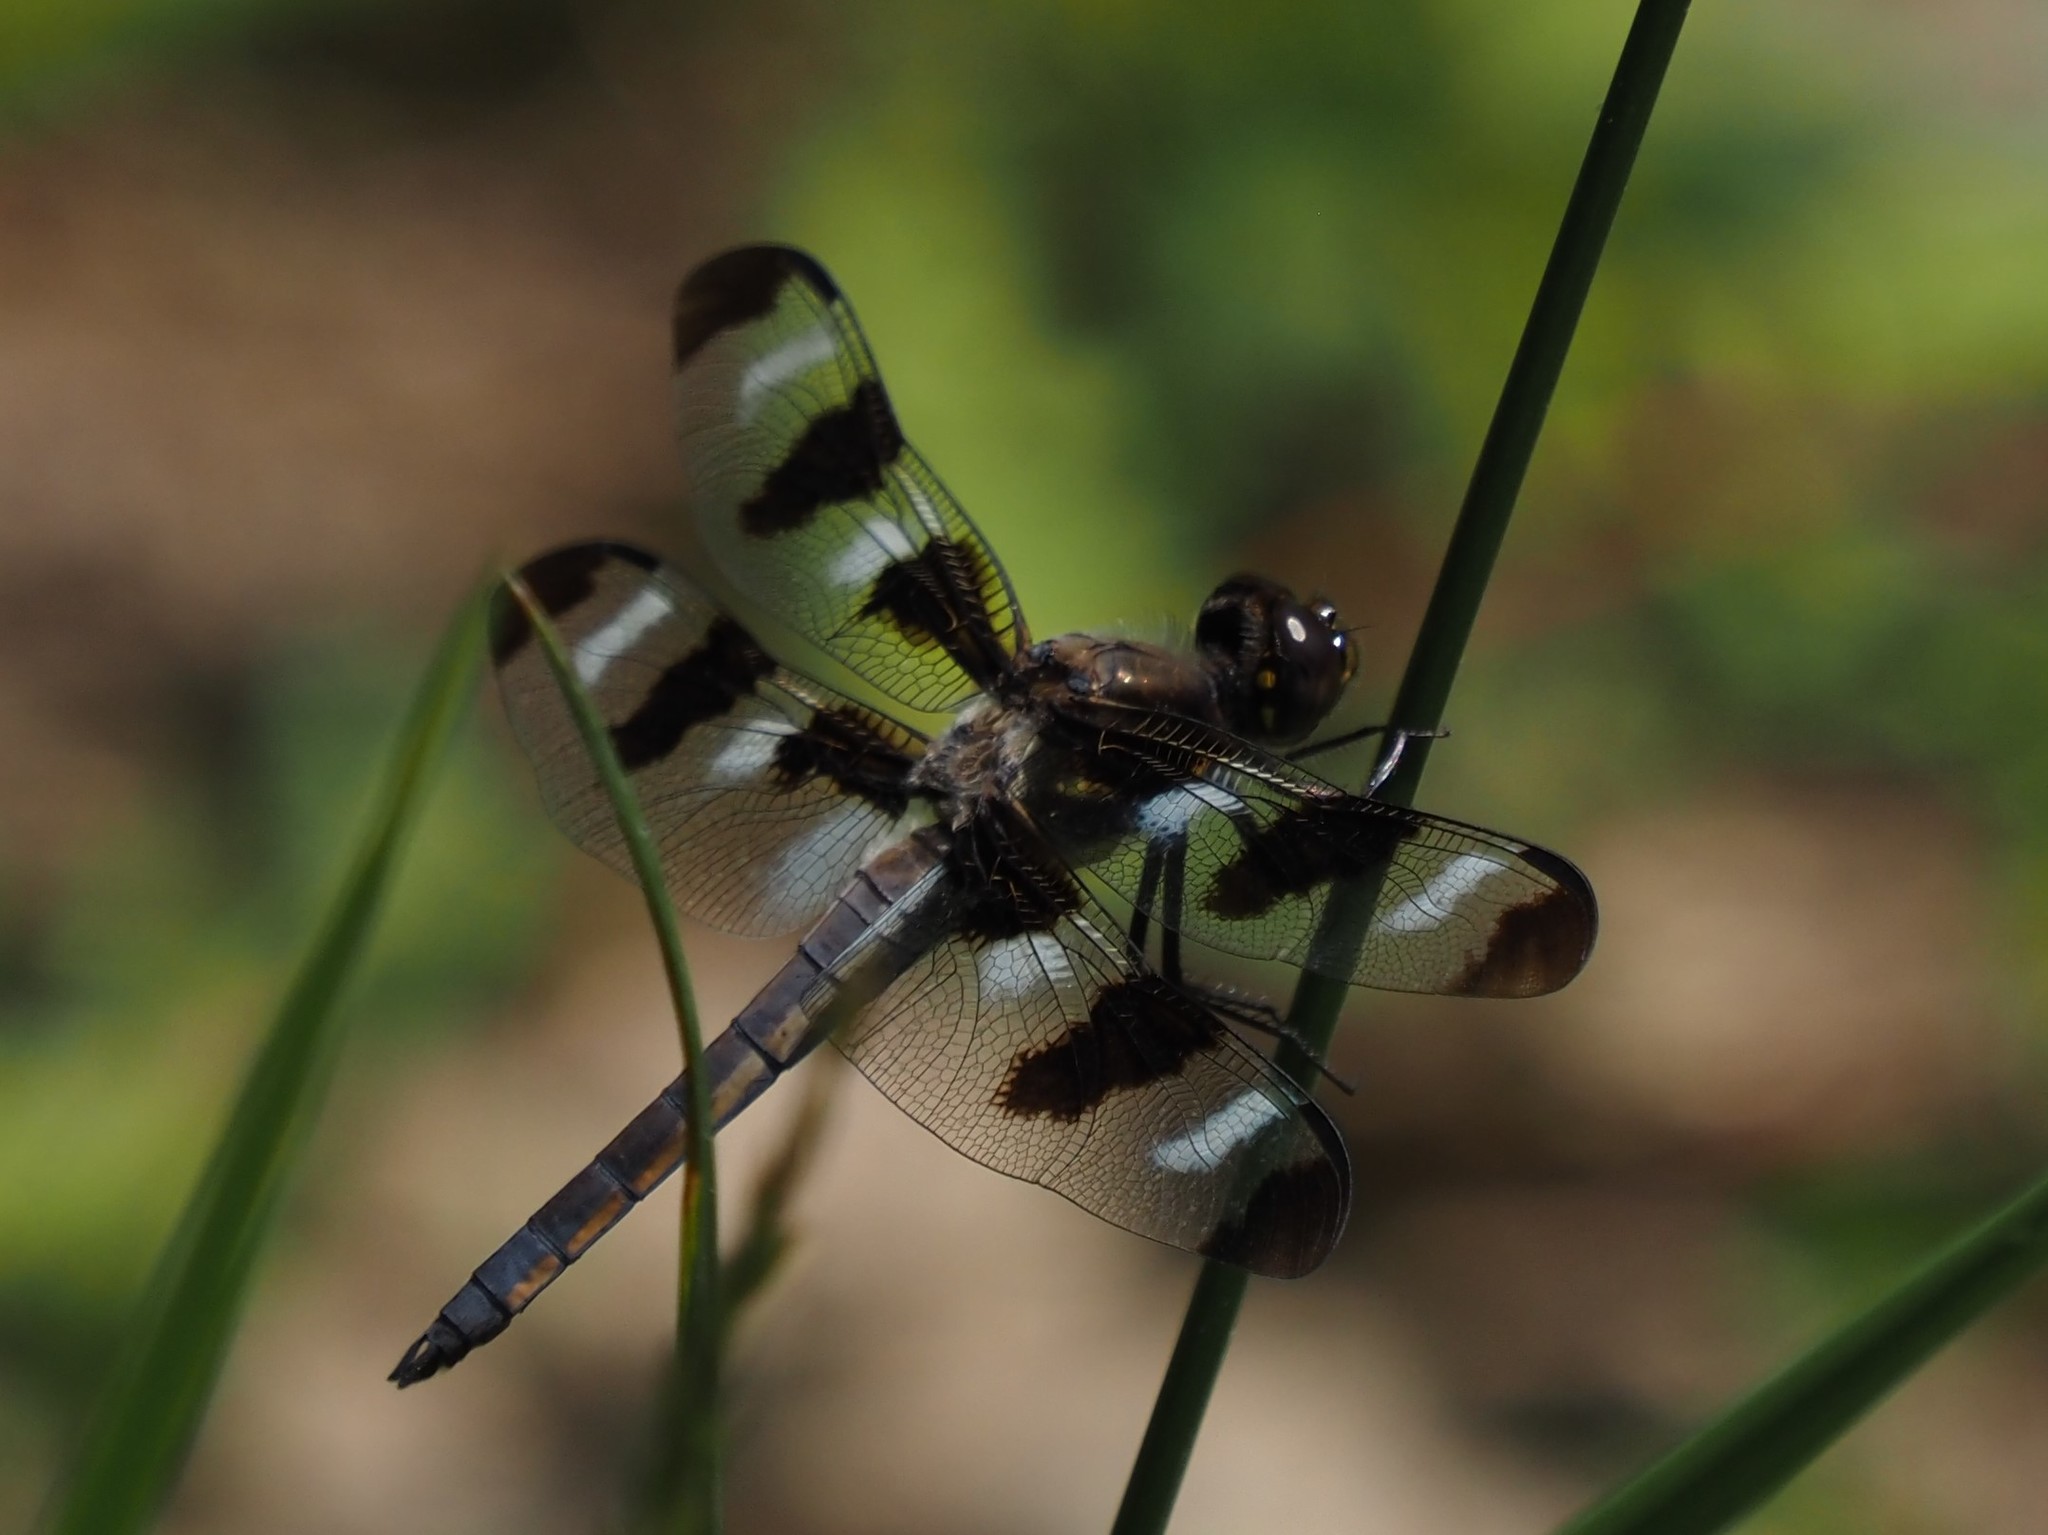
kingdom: Animalia
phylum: Arthropoda
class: Insecta
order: Odonata
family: Libellulidae
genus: Libellula
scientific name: Libellula pulchella
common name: Twelve-spotted skimmer
